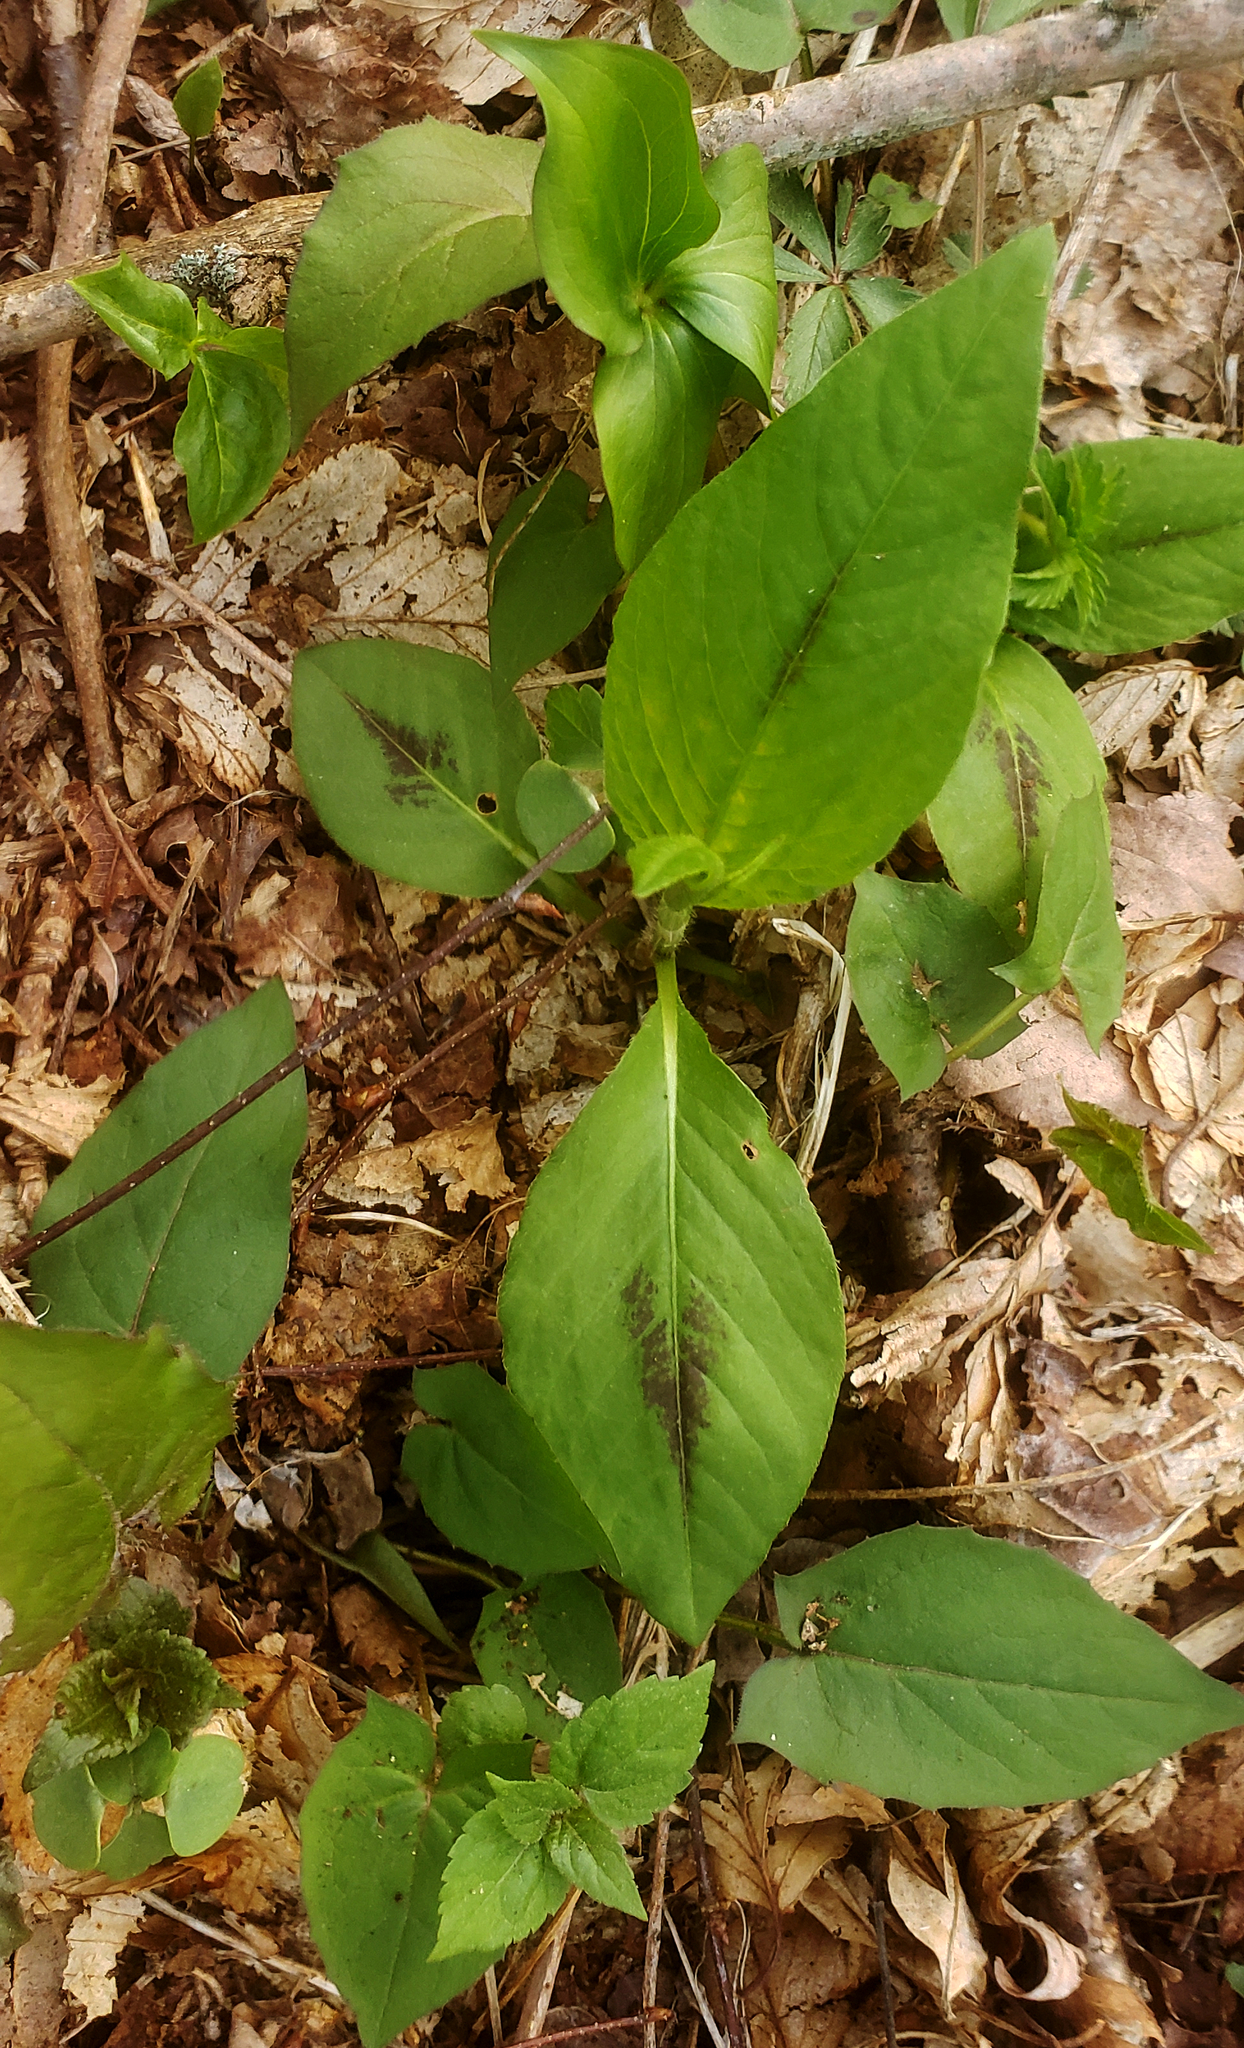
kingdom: Plantae
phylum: Tracheophyta
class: Magnoliopsida
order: Caryophyllales
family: Polygonaceae
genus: Persicaria
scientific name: Persicaria virginiana
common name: Jumpseed
